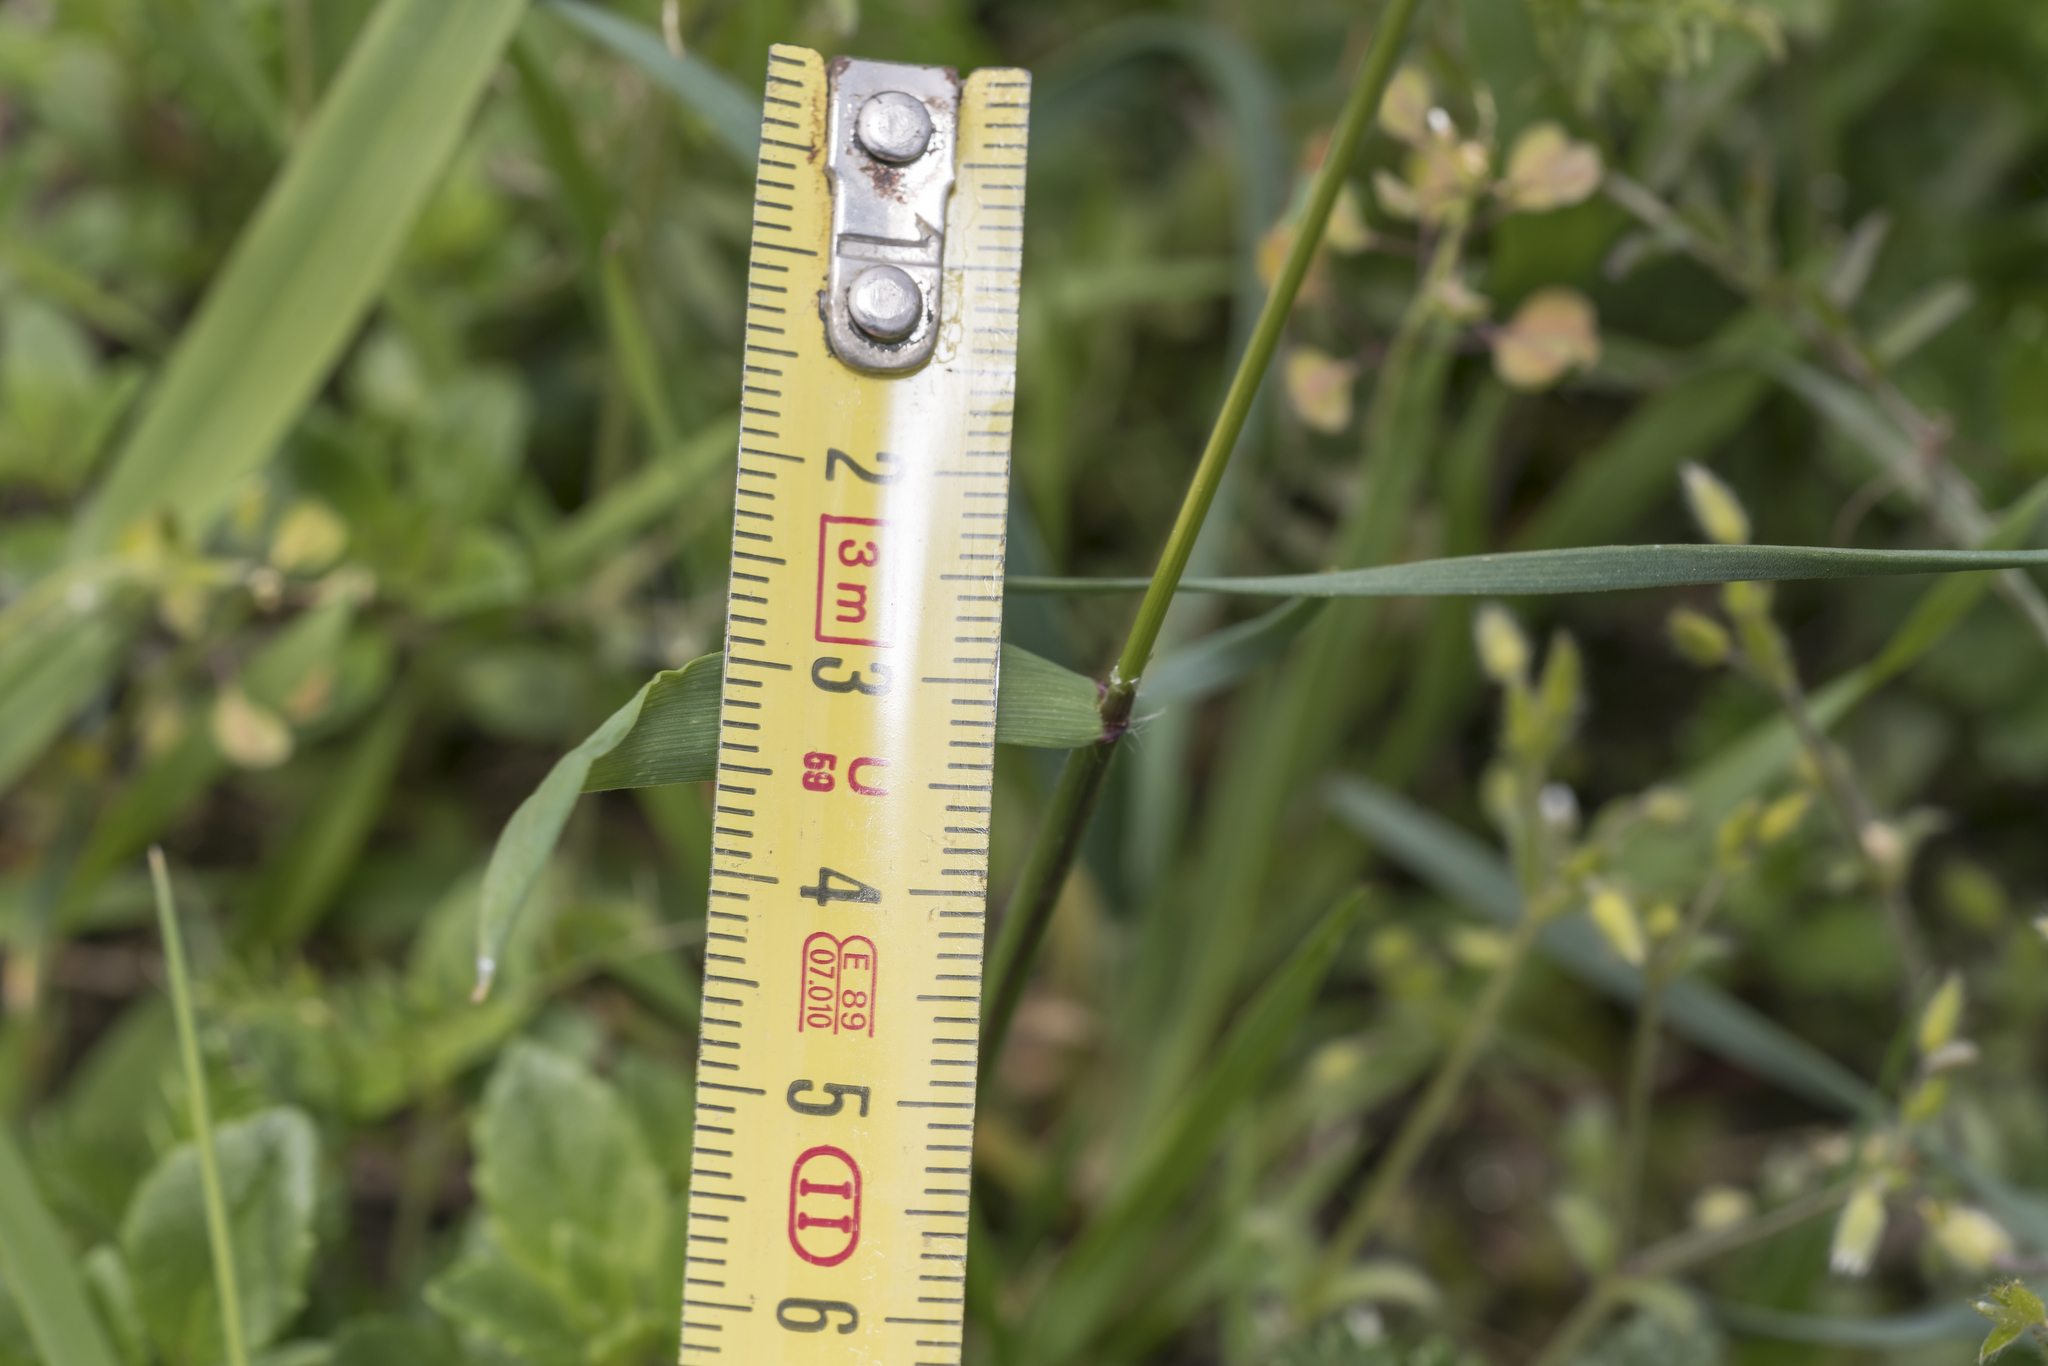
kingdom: Plantae
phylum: Tracheophyta
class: Liliopsida
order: Poales
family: Poaceae
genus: Anthoxanthum
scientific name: Anthoxanthum odoratum
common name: Sweet vernalgrass
